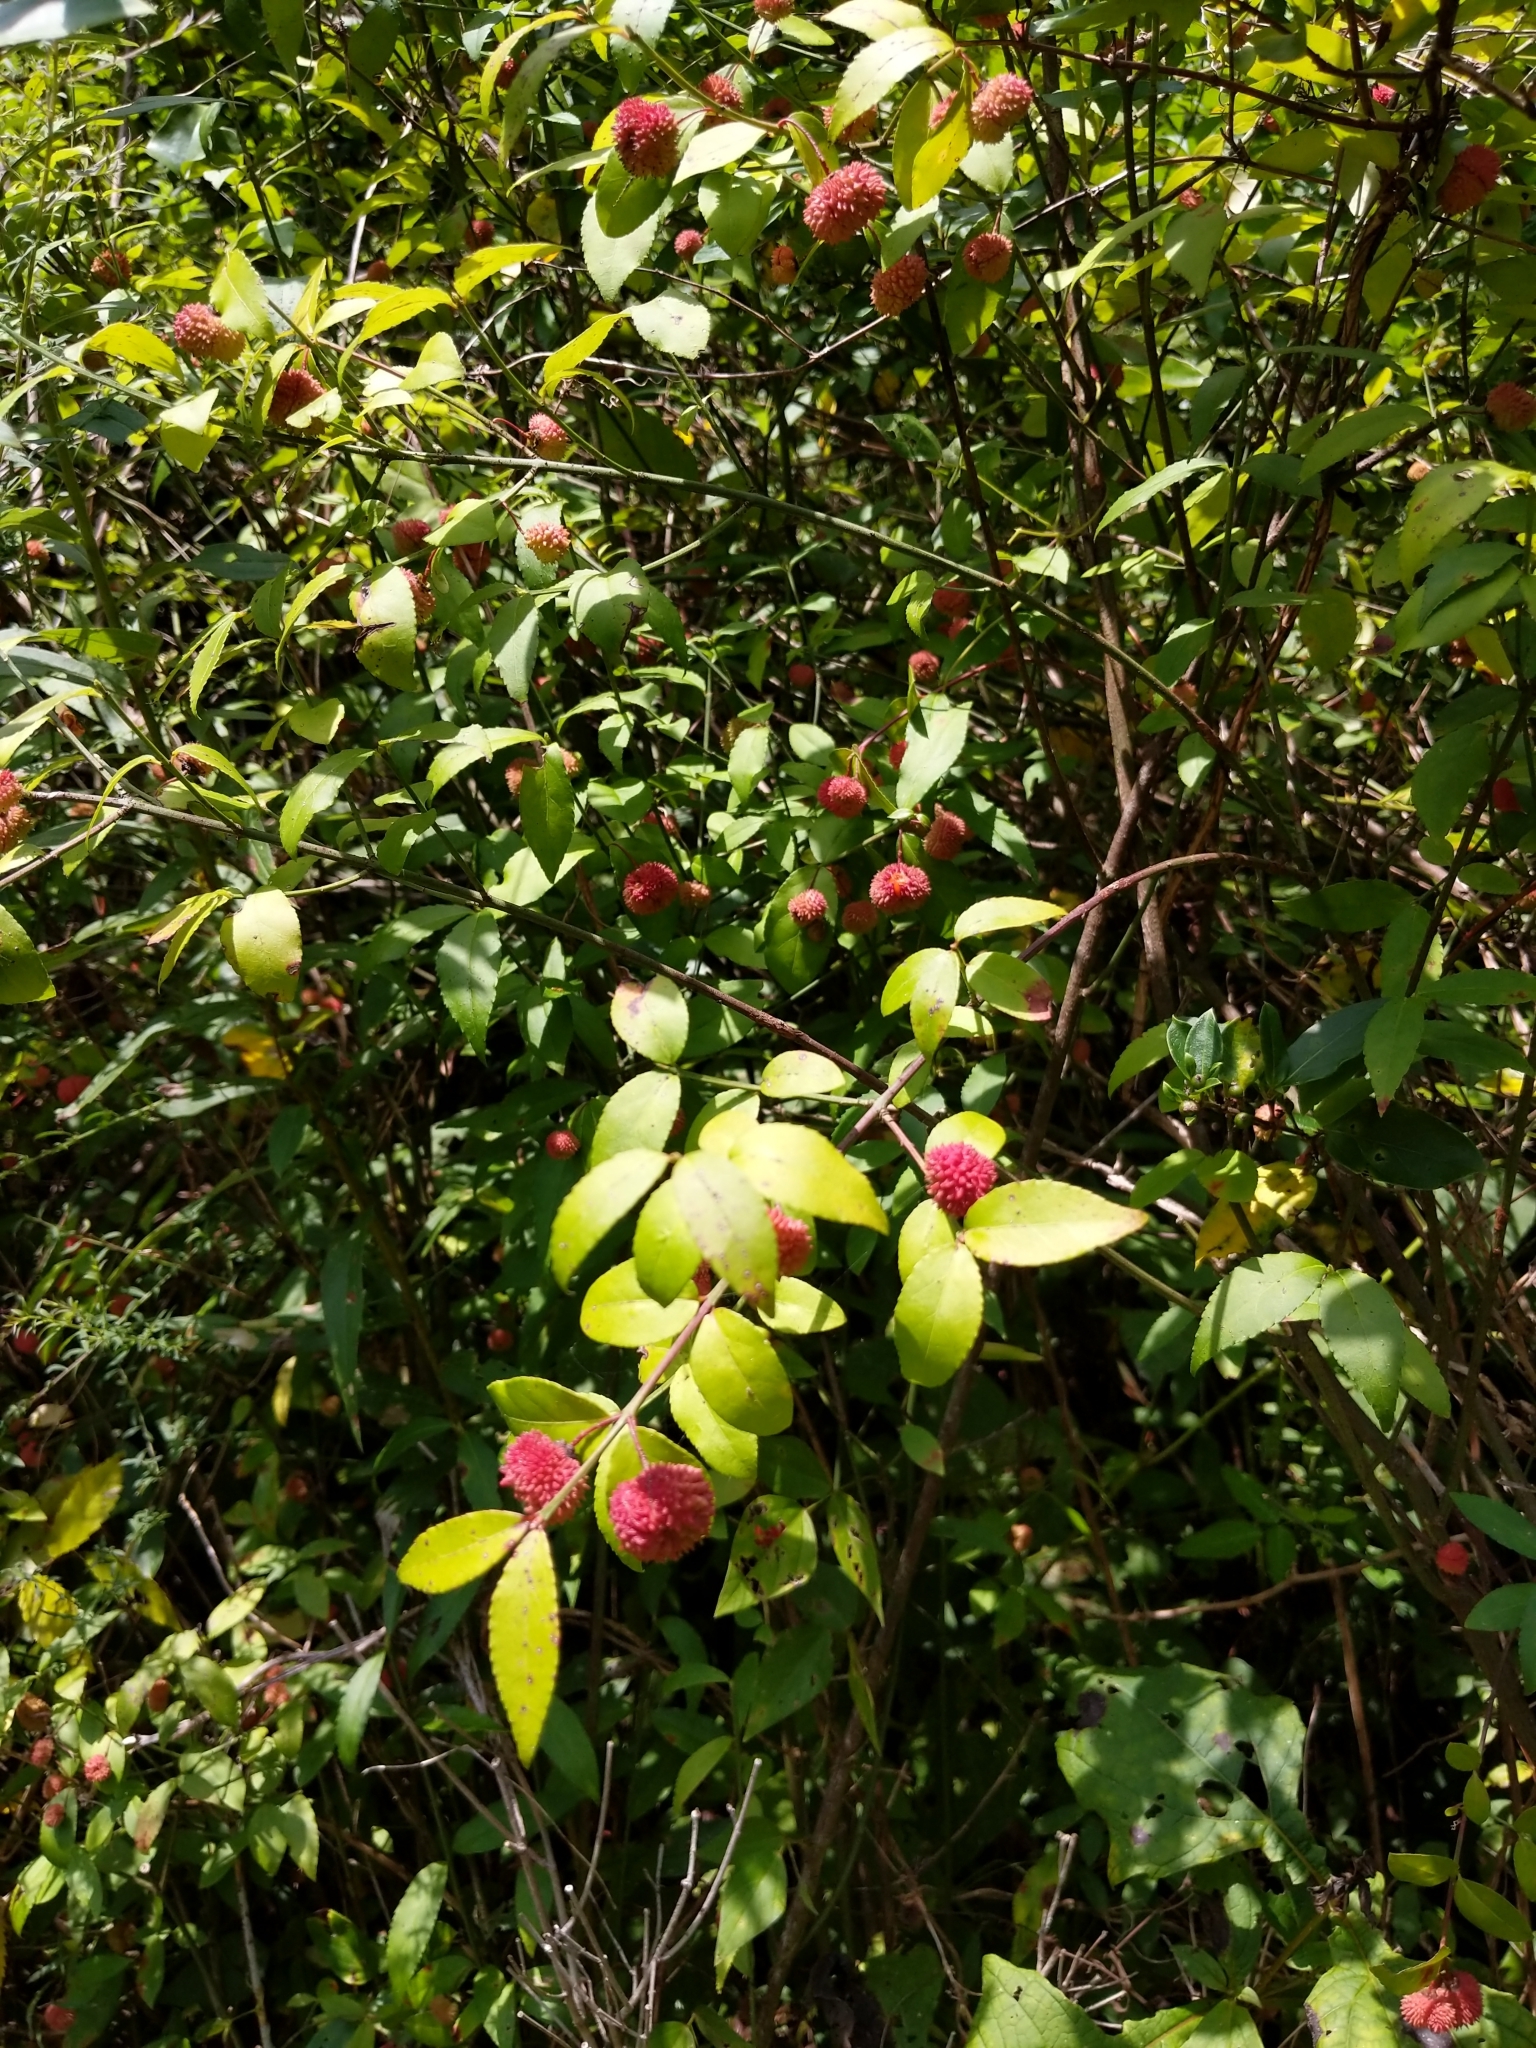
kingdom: Plantae
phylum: Tracheophyta
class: Magnoliopsida
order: Celastrales
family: Celastraceae
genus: Euonymus
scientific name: Euonymus americanus
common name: Bursting-heart
